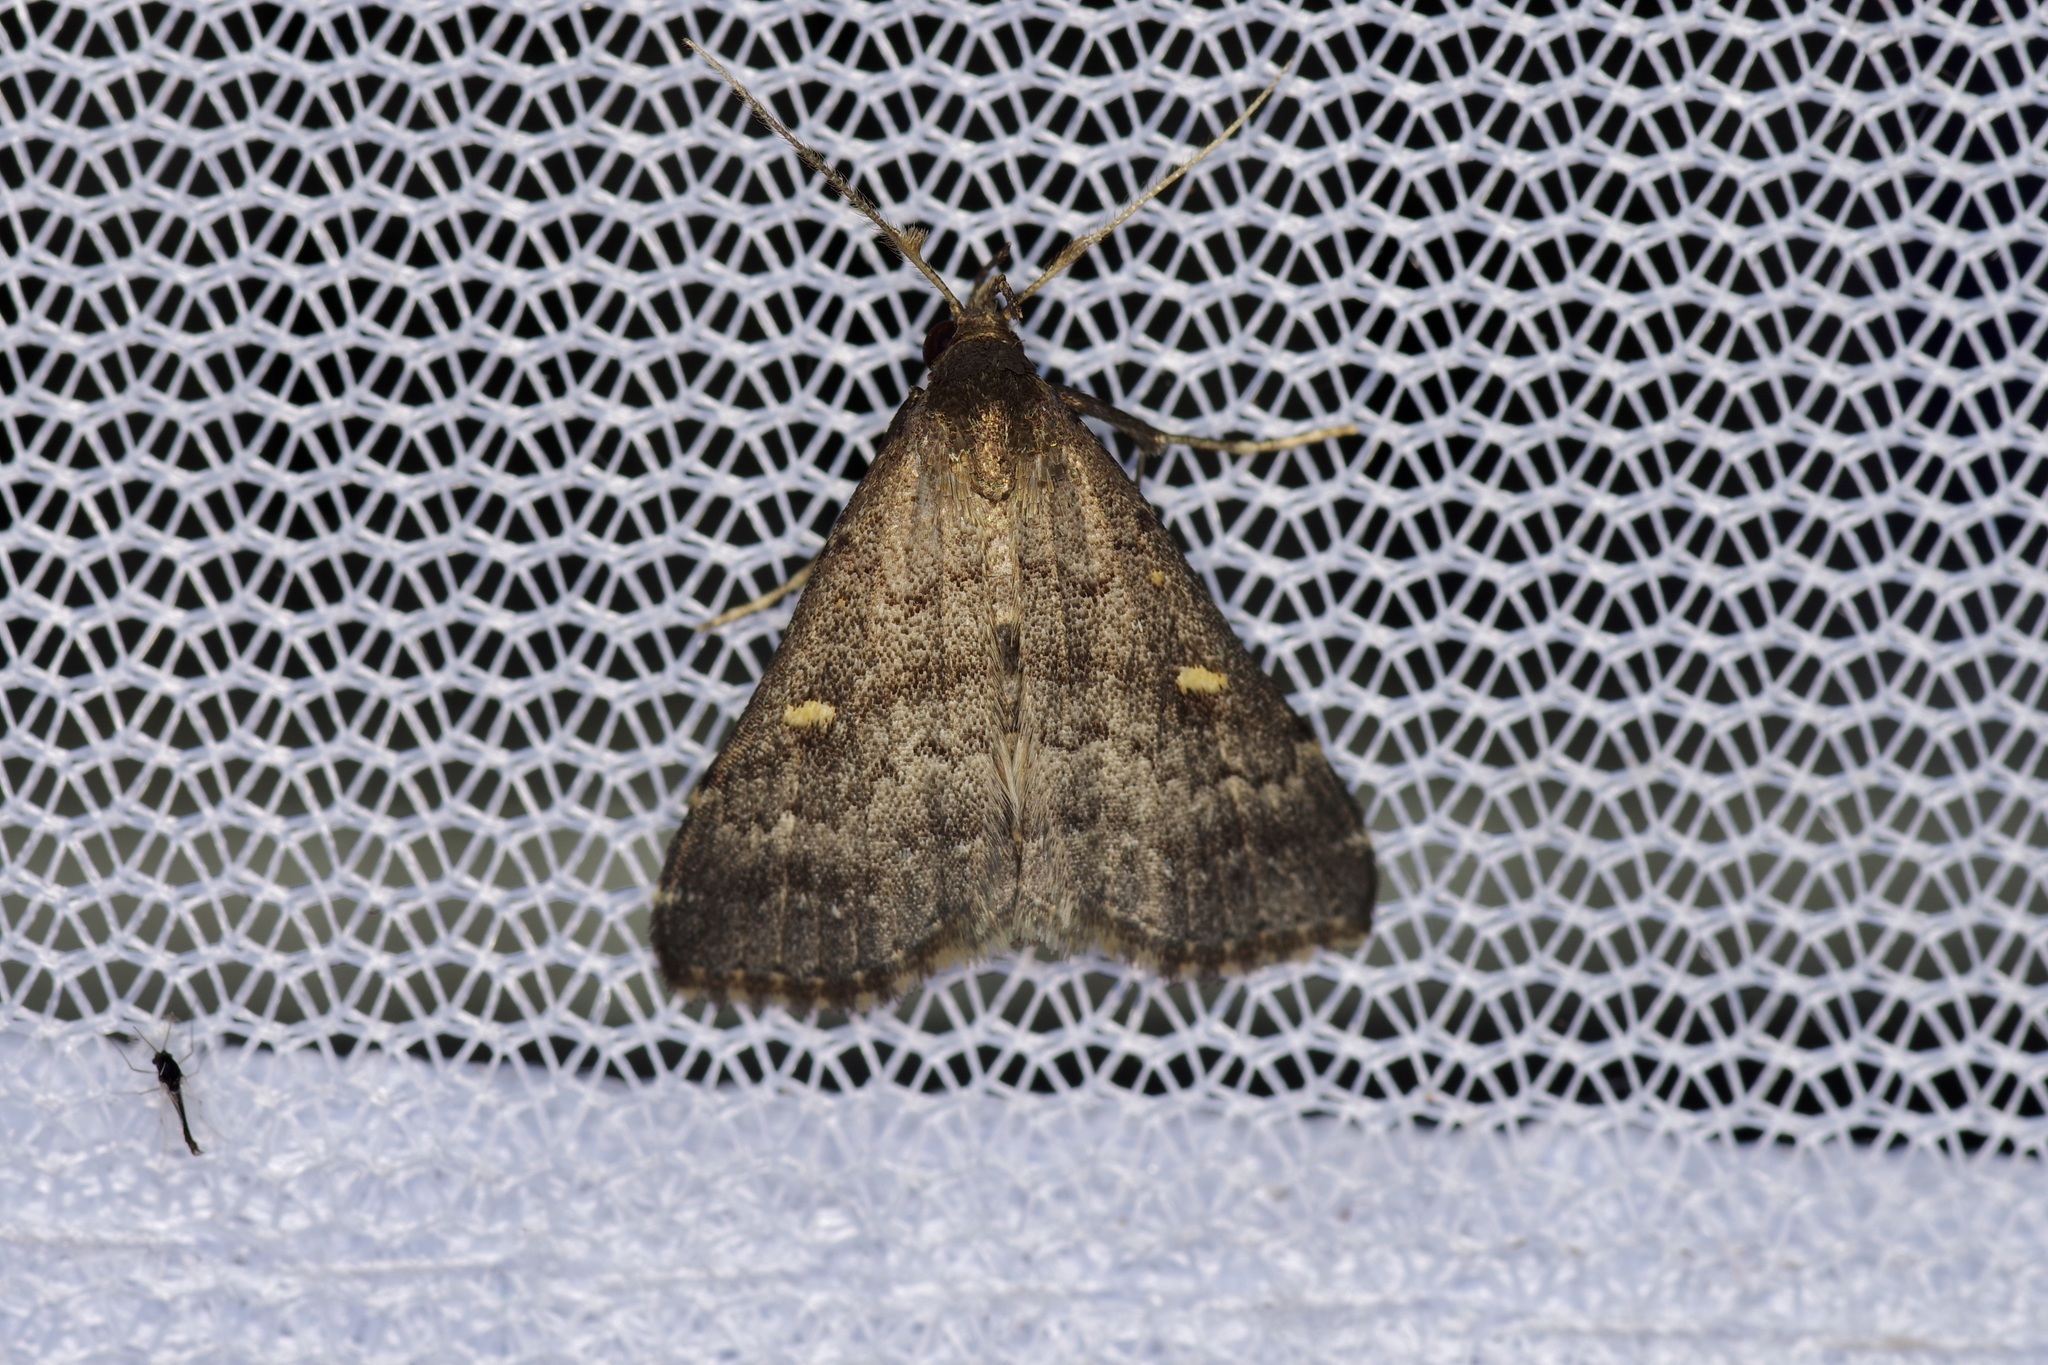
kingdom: Animalia
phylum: Arthropoda
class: Insecta
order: Lepidoptera
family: Erebidae
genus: Tetanolita
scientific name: Tetanolita mynesalis
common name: Smoky tetanolita moth
